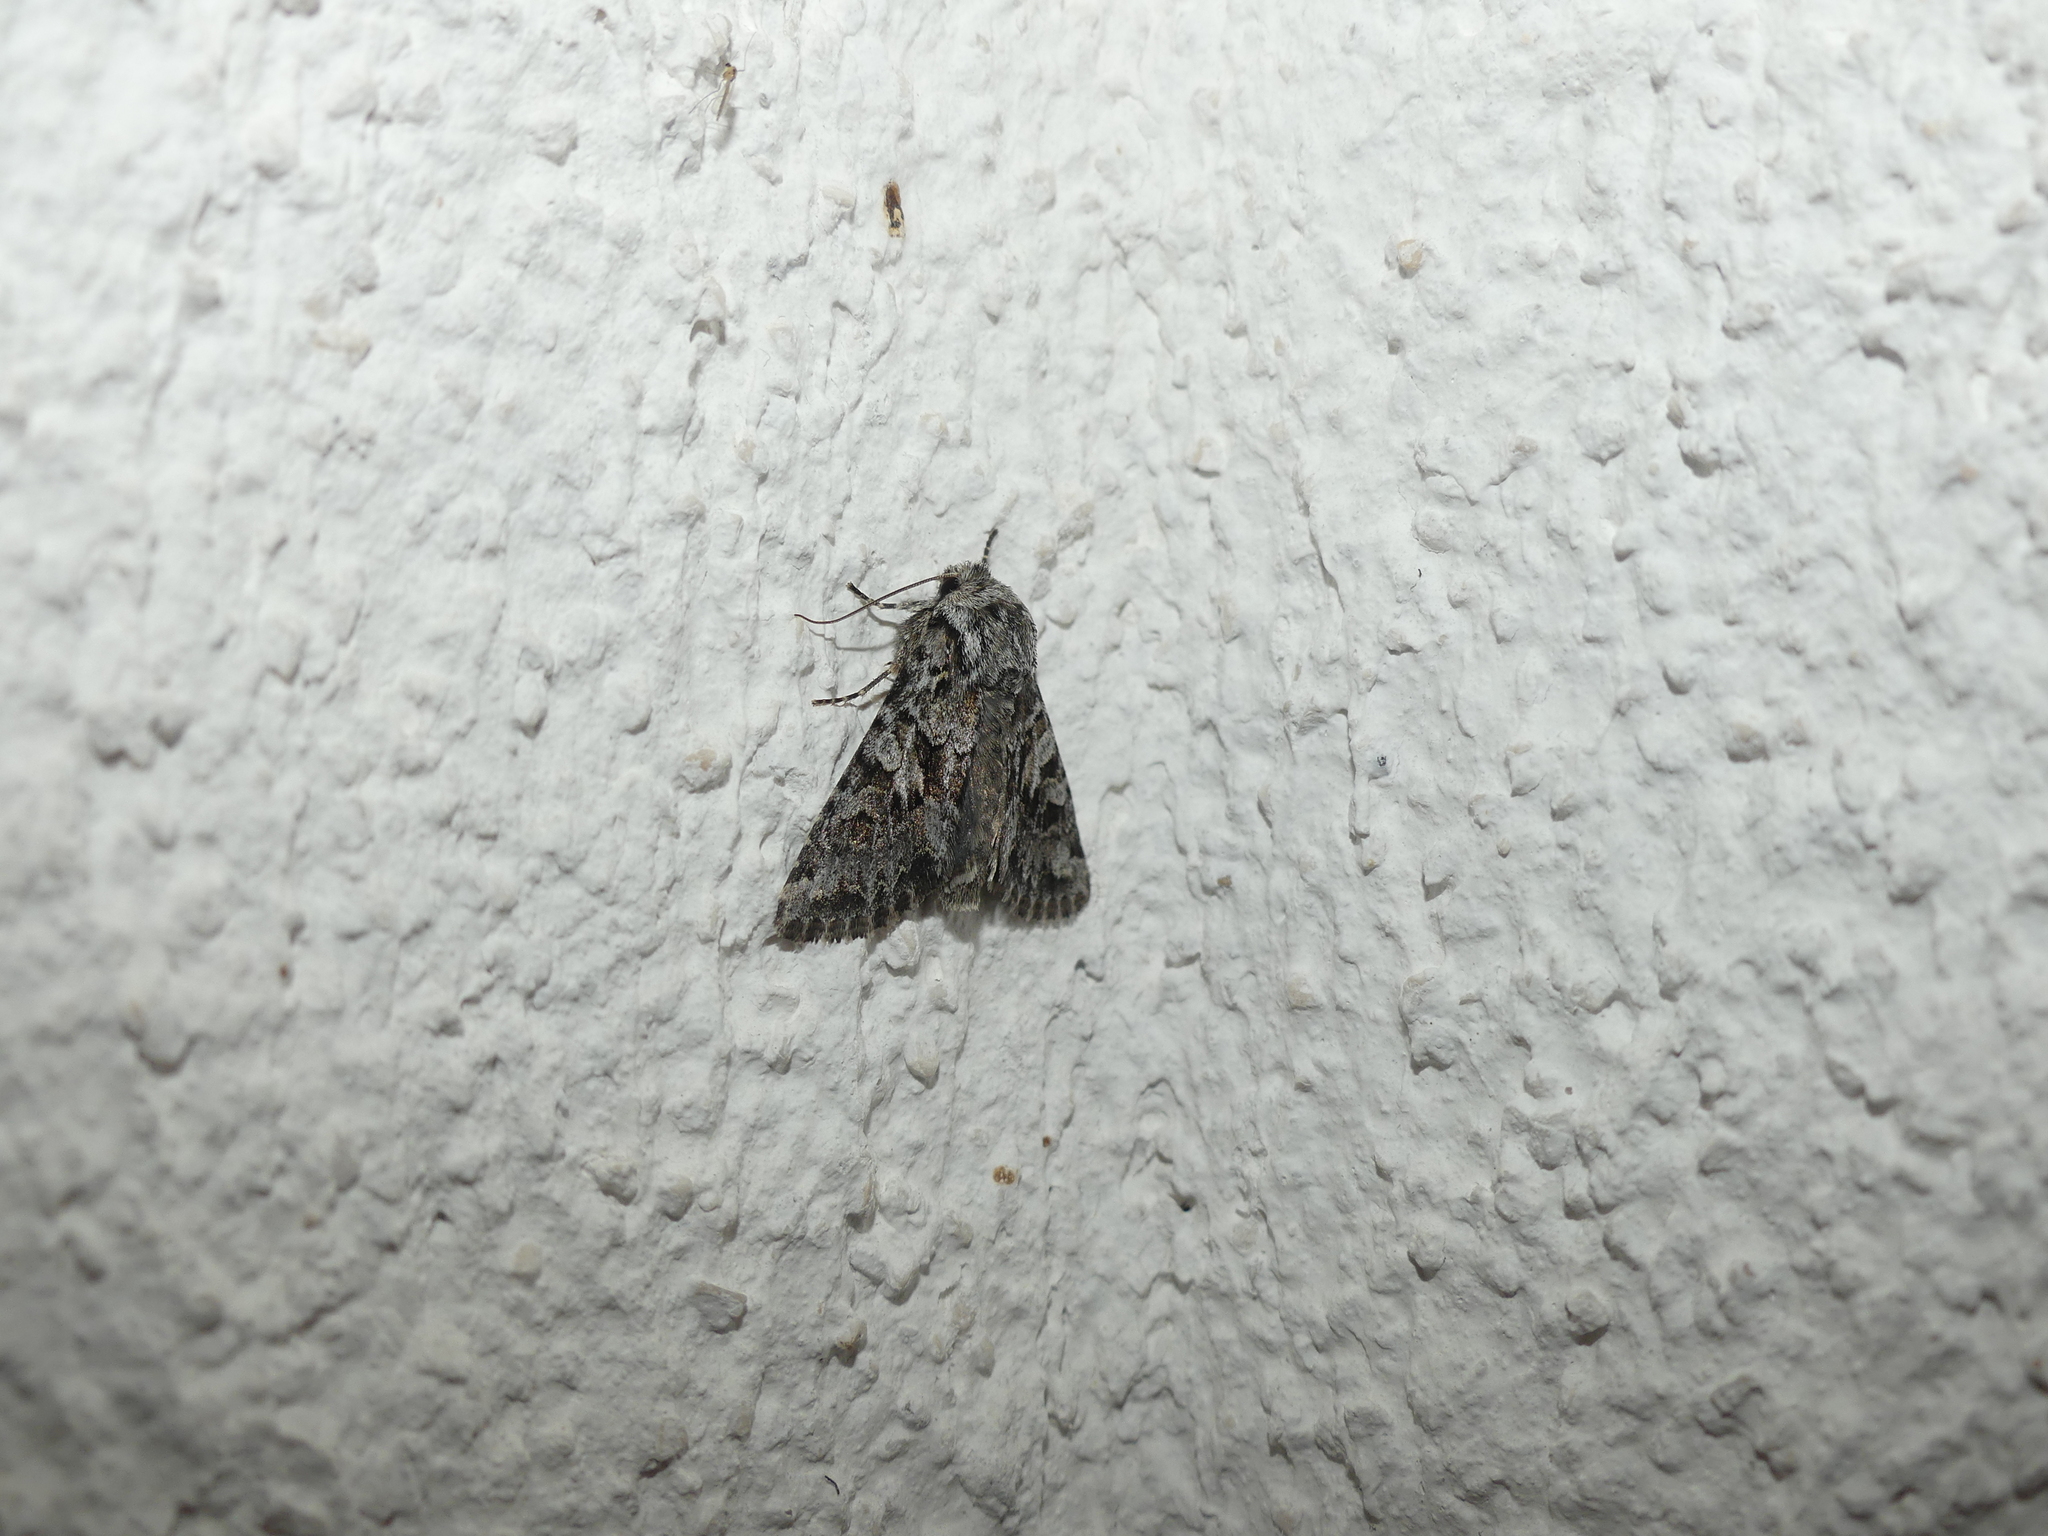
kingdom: Animalia
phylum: Arthropoda
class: Insecta
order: Lepidoptera
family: Noctuidae
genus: Hada
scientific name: Hada plebeja
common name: Shears
